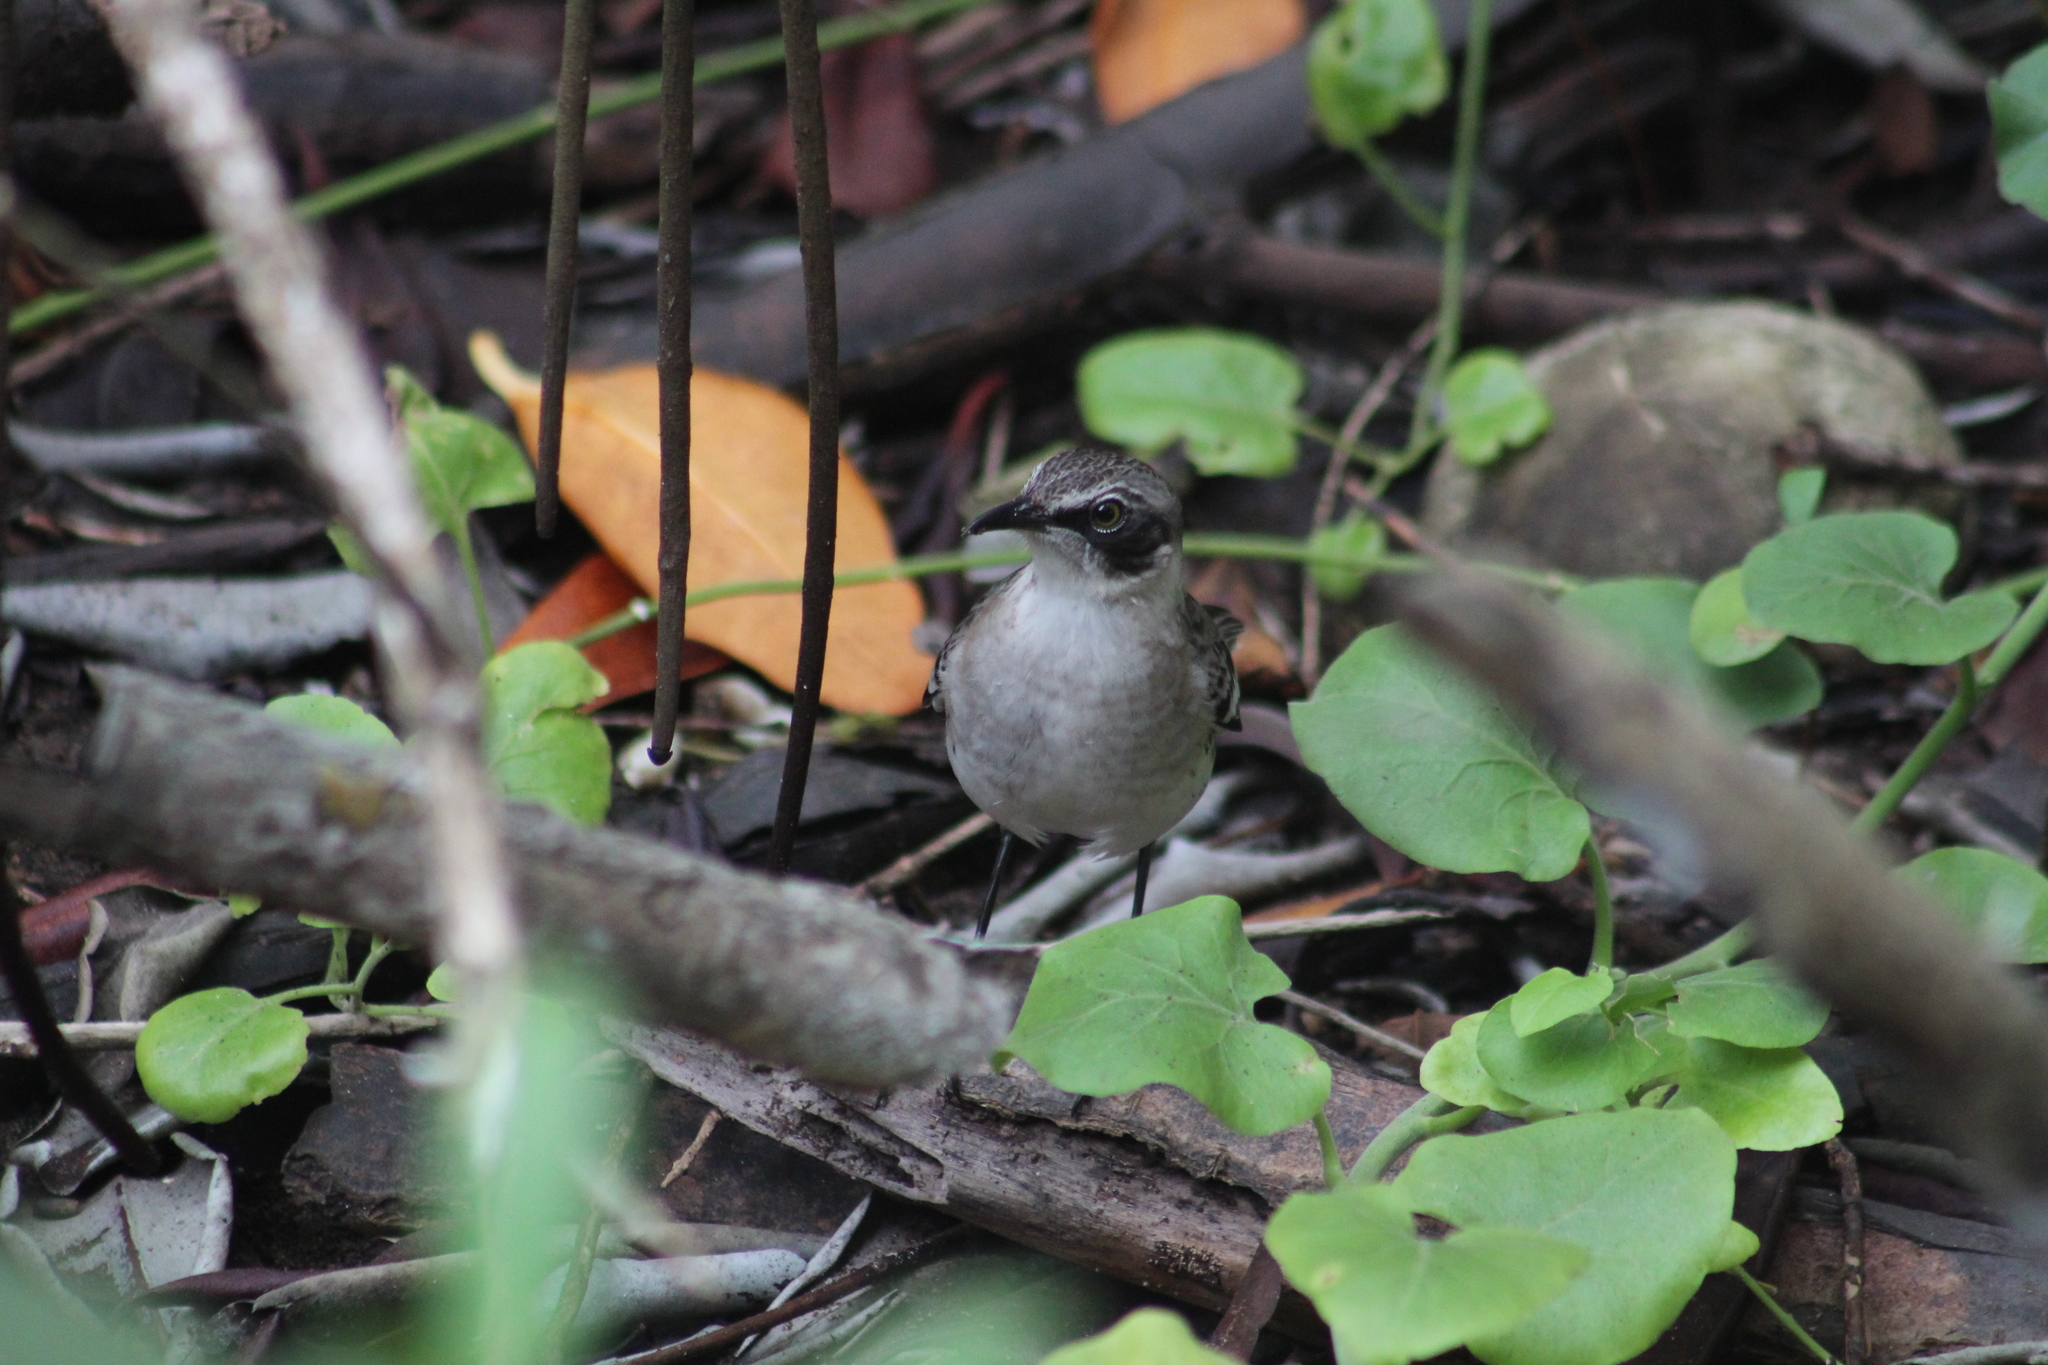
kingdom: Animalia
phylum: Chordata
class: Aves
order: Passeriformes
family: Mimidae
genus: Mimus
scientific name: Mimus parvulus
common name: Galapagos mockingbird
